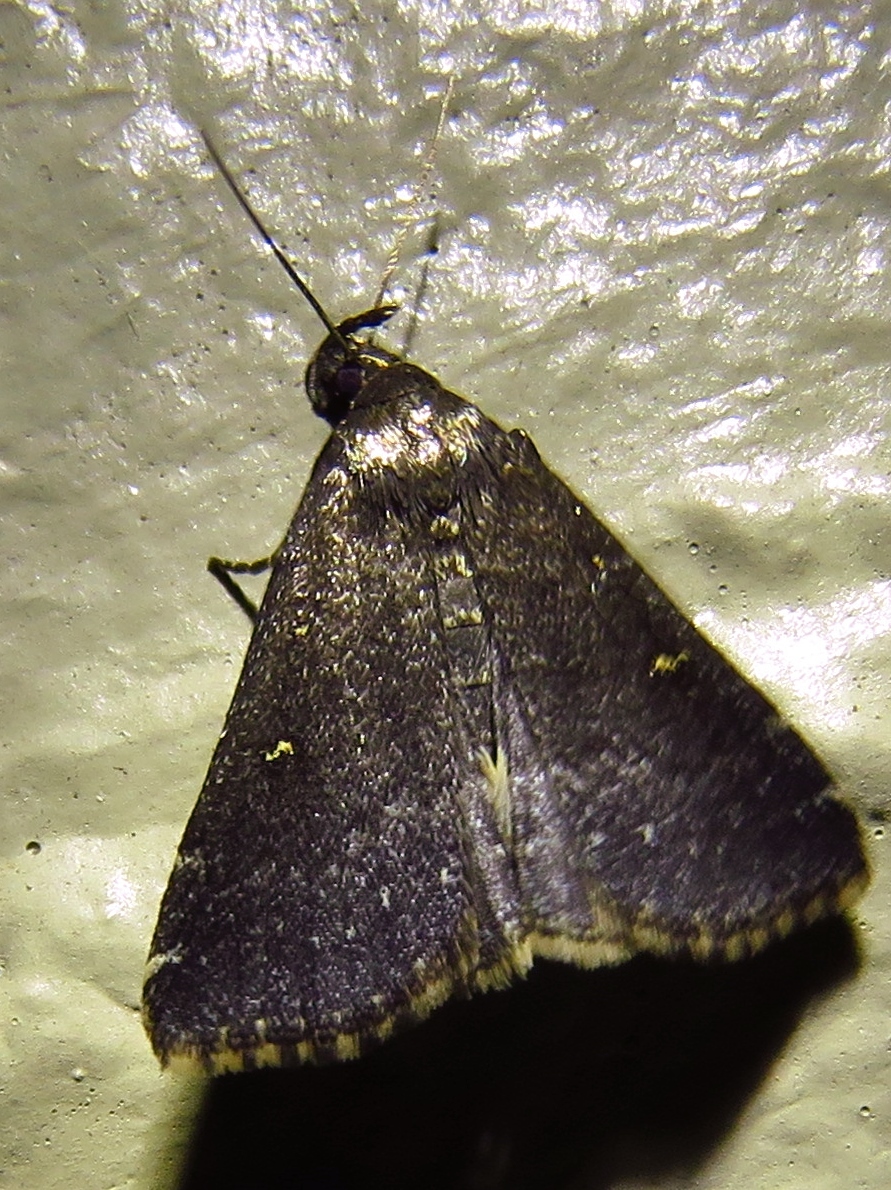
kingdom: Animalia
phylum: Arthropoda
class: Insecta
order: Lepidoptera
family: Erebidae
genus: Tetanolita
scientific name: Tetanolita mynesalis
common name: Smoky tetanolita moth
